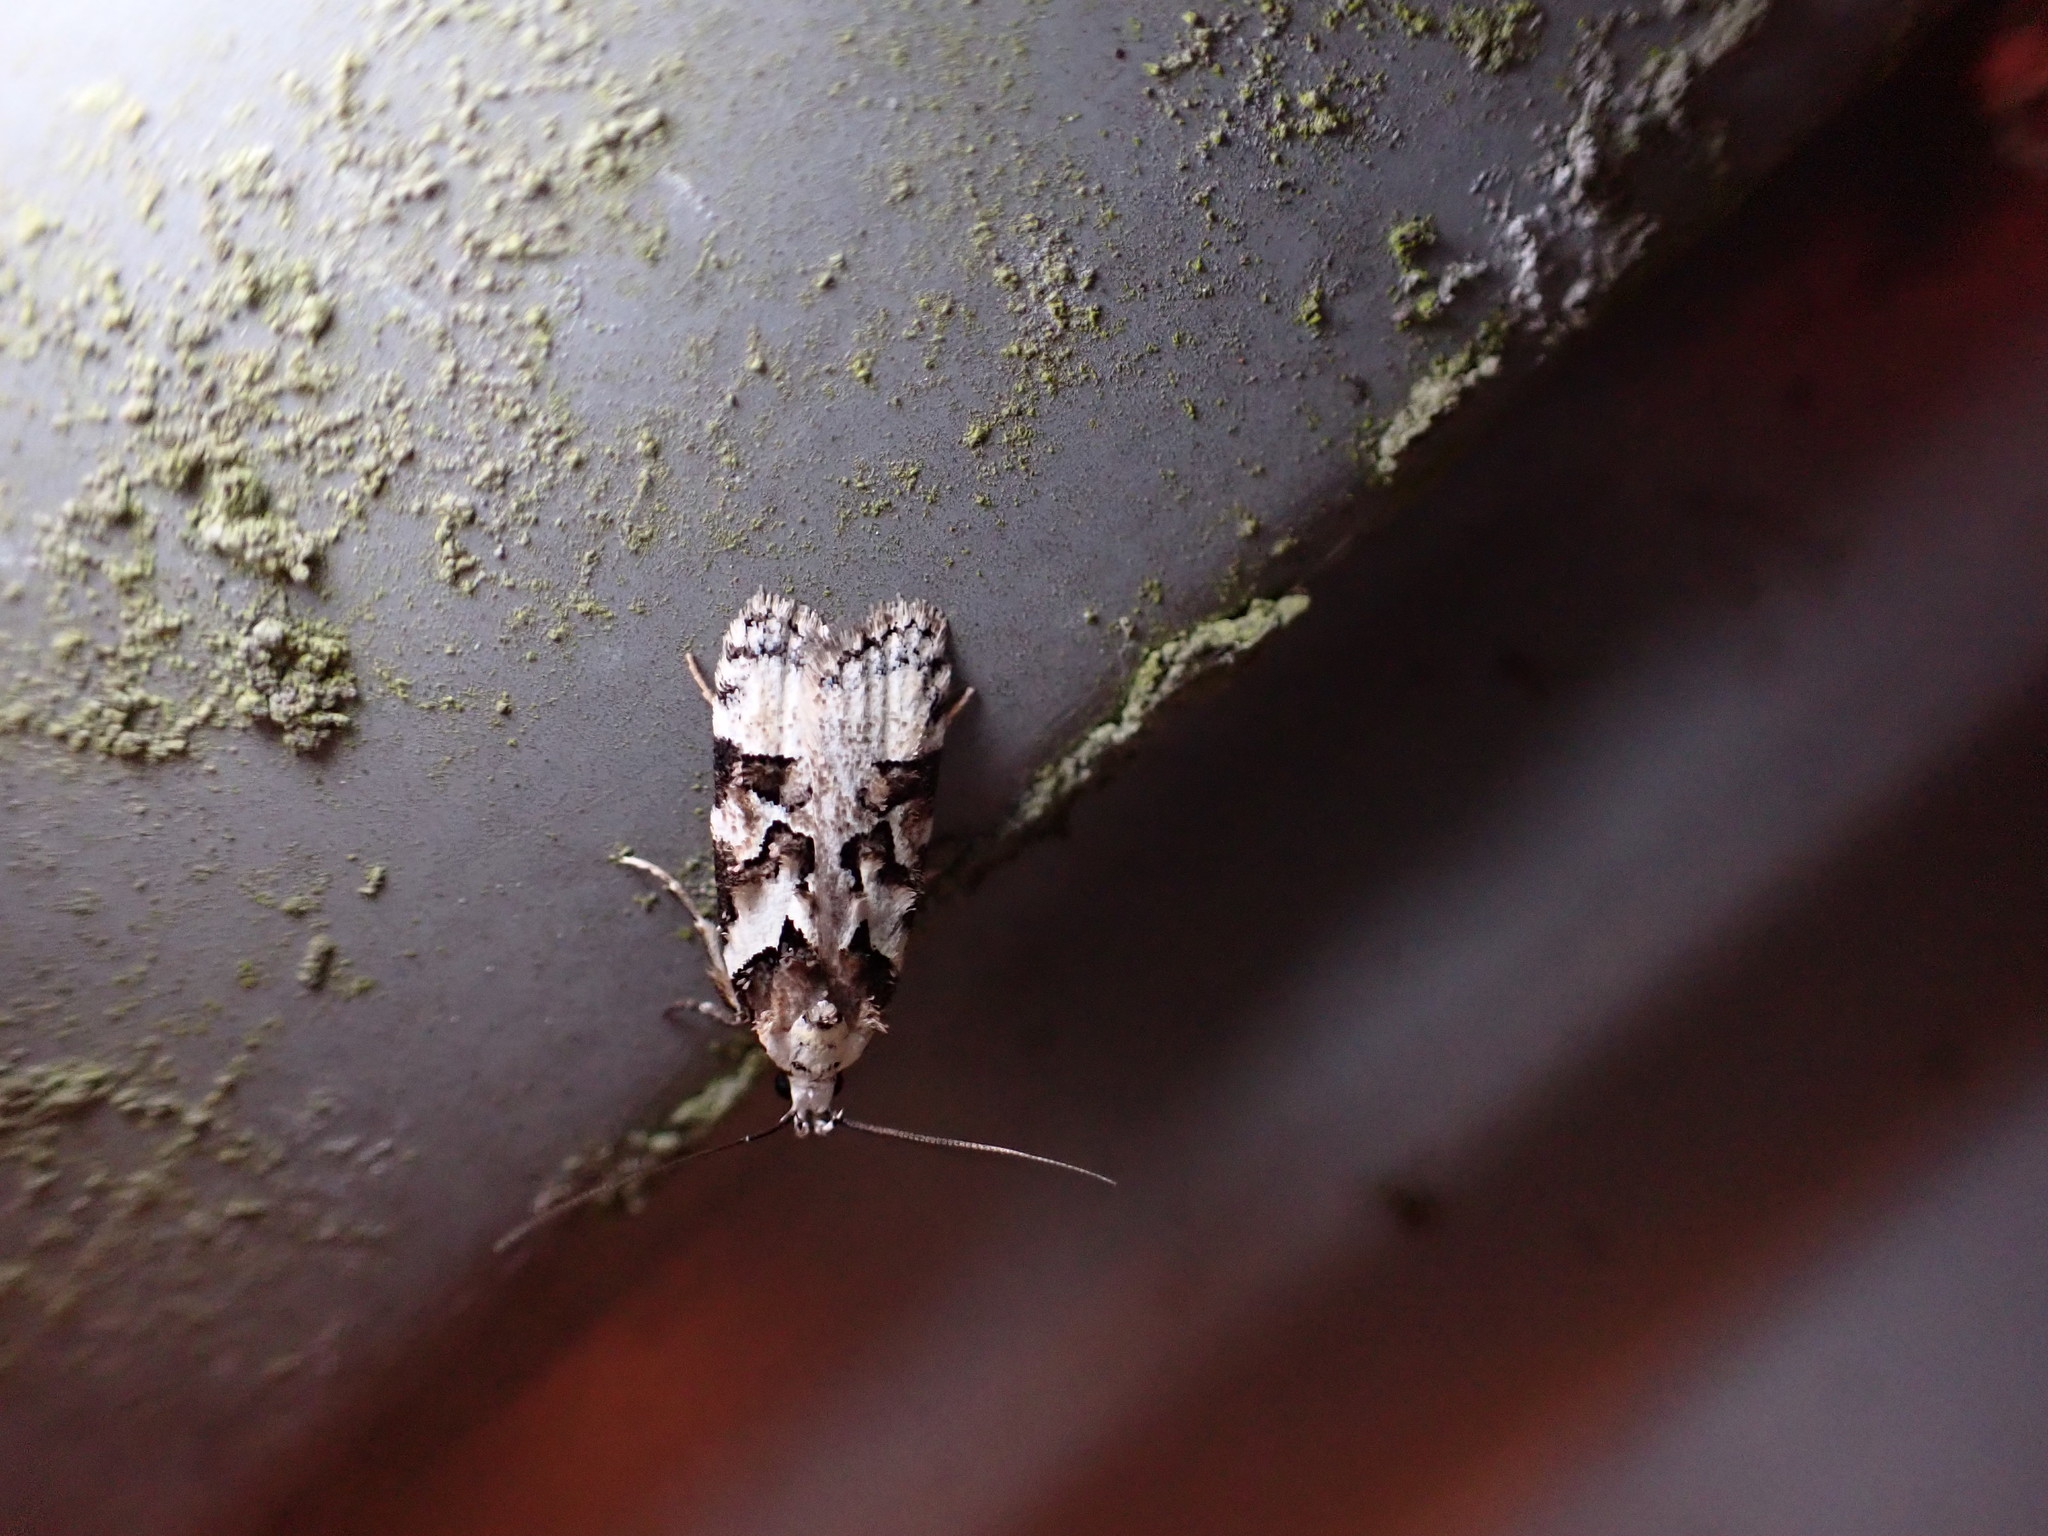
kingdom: Animalia
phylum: Arthropoda
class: Insecta
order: Lepidoptera
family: Oecophoridae
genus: Izatha
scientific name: Izatha epiphanes
